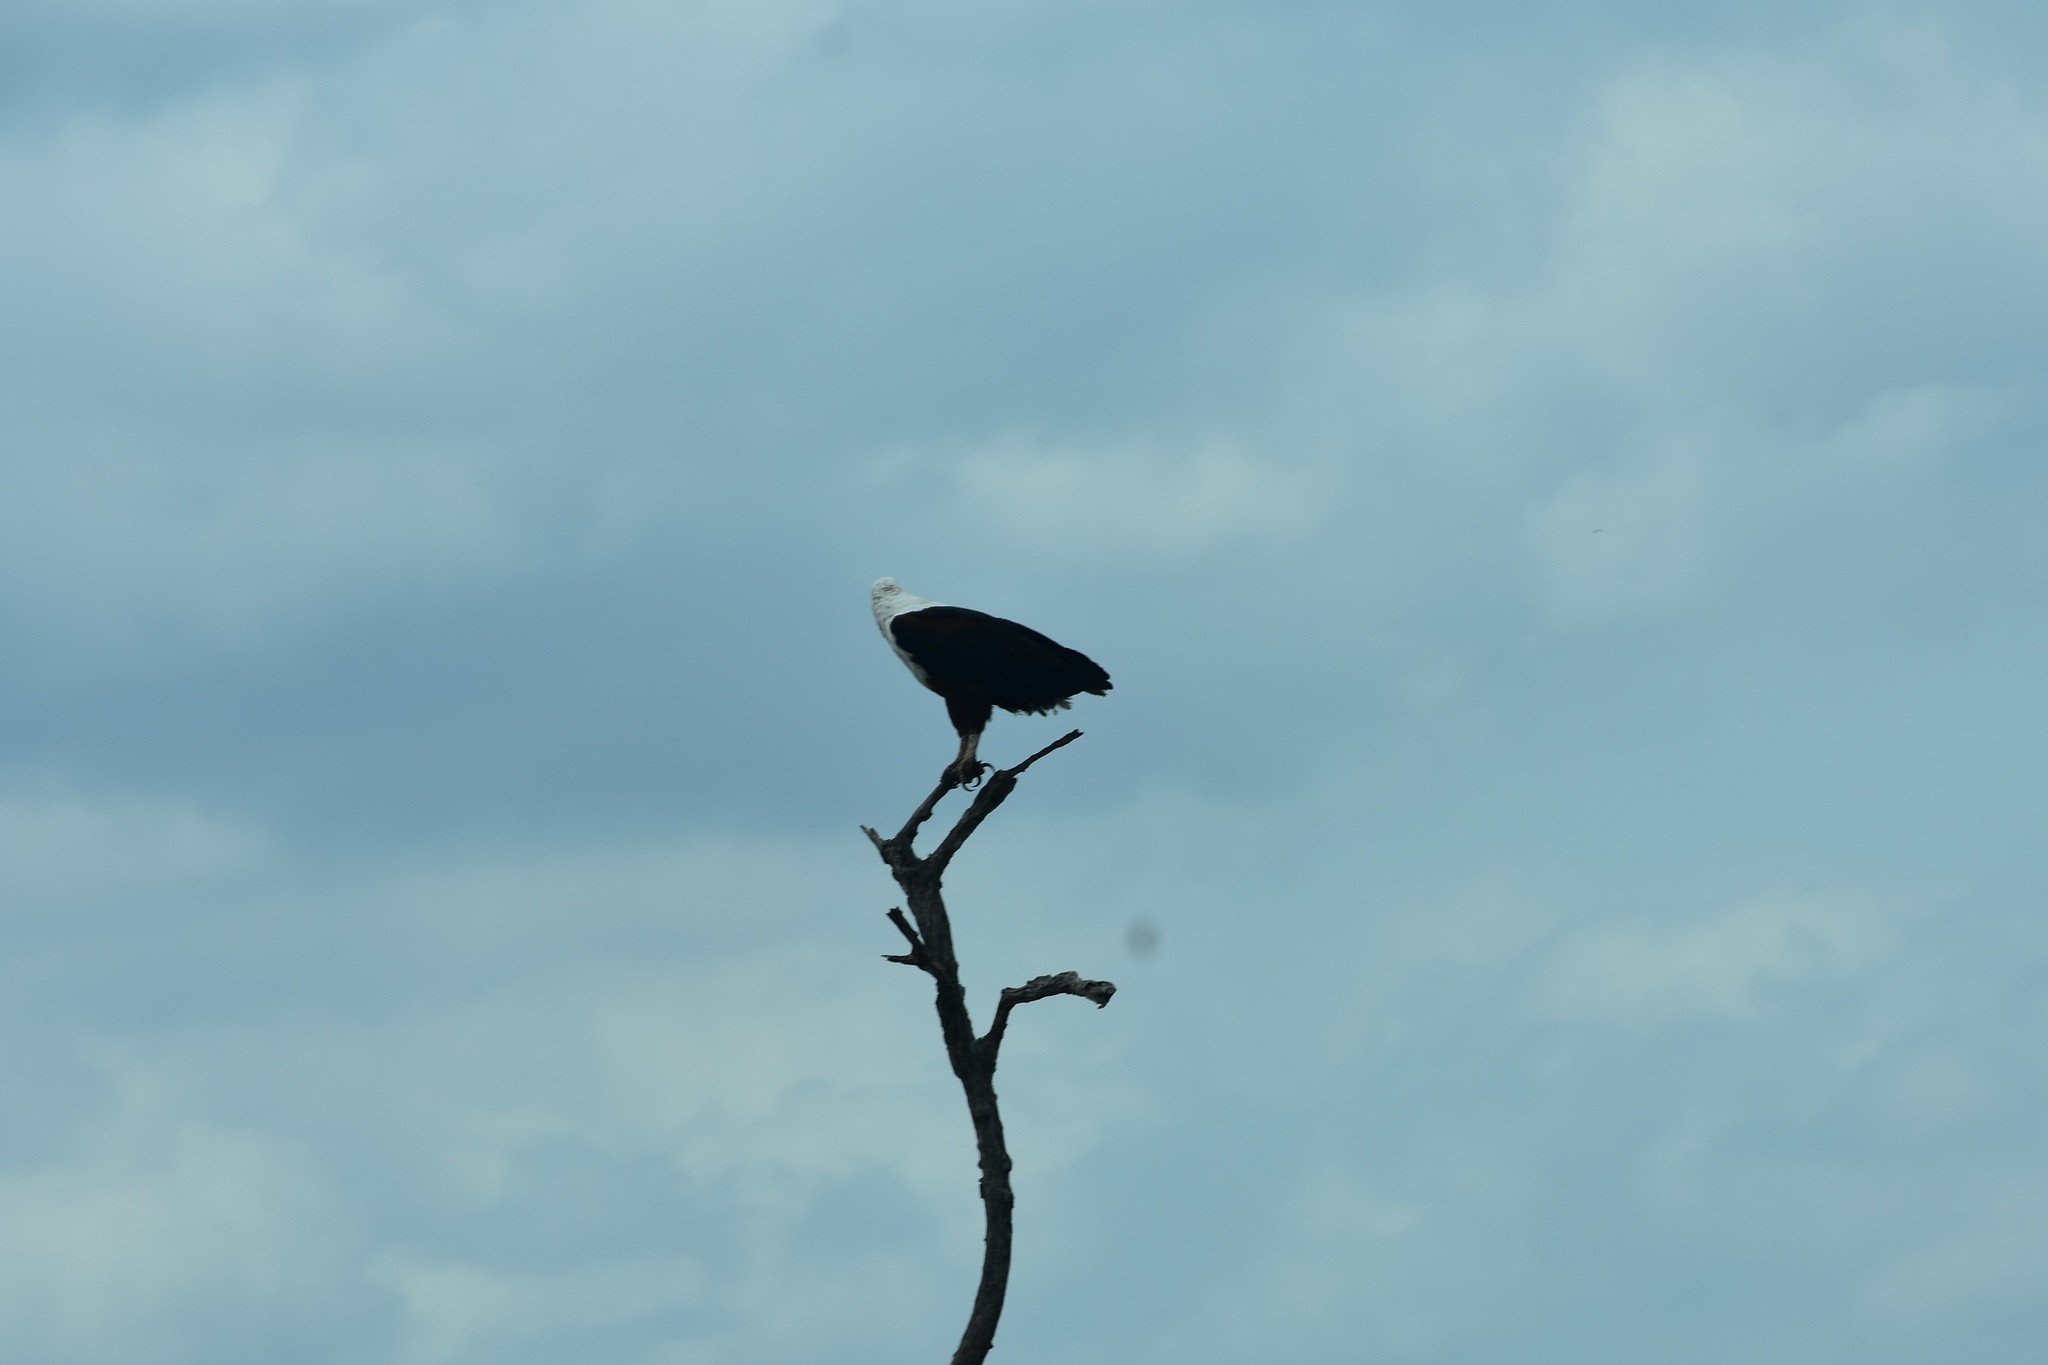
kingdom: Animalia
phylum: Chordata
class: Aves
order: Accipitriformes
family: Accipitridae
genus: Haliaeetus
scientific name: Haliaeetus vocifer
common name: African fish eagle
